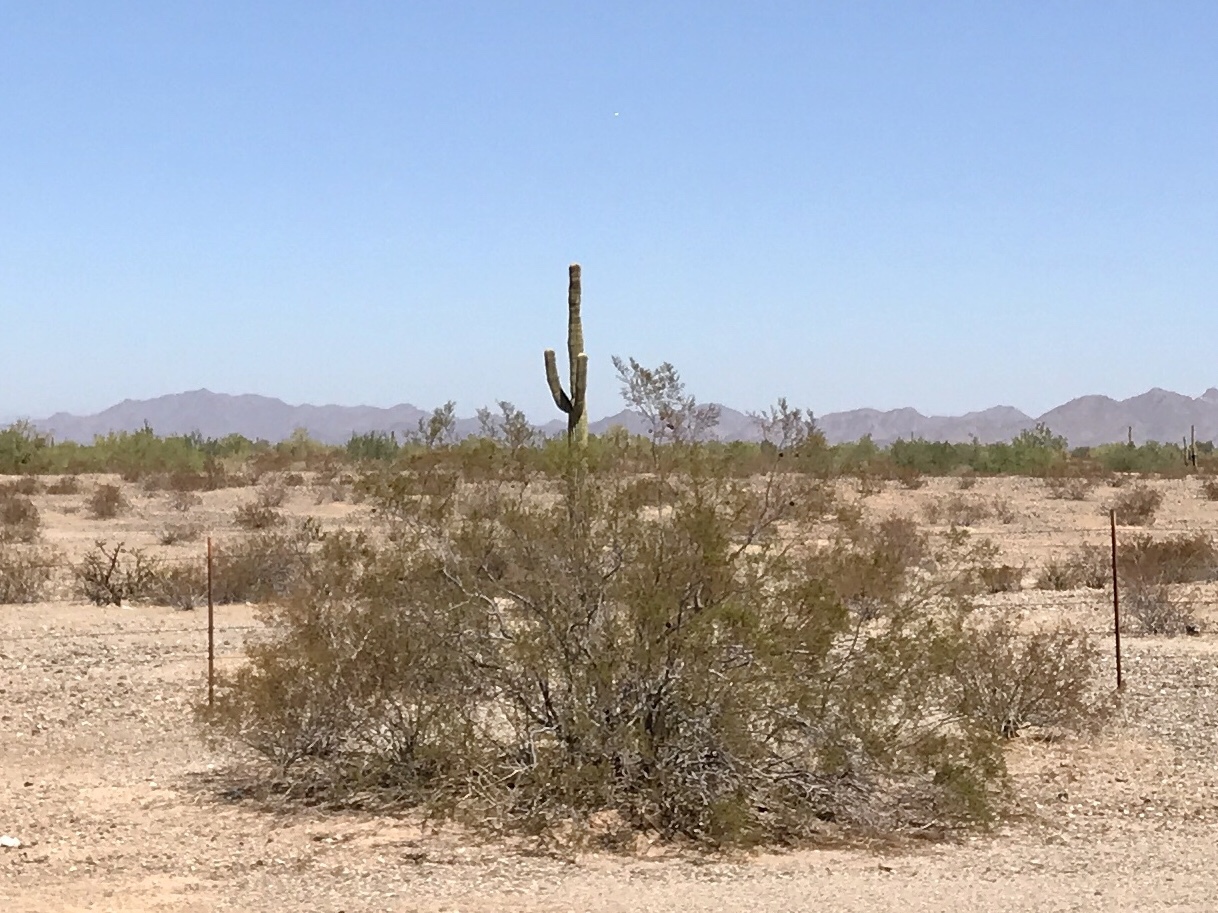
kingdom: Plantae
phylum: Tracheophyta
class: Magnoliopsida
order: Zygophyllales
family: Zygophyllaceae
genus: Larrea
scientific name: Larrea tridentata
